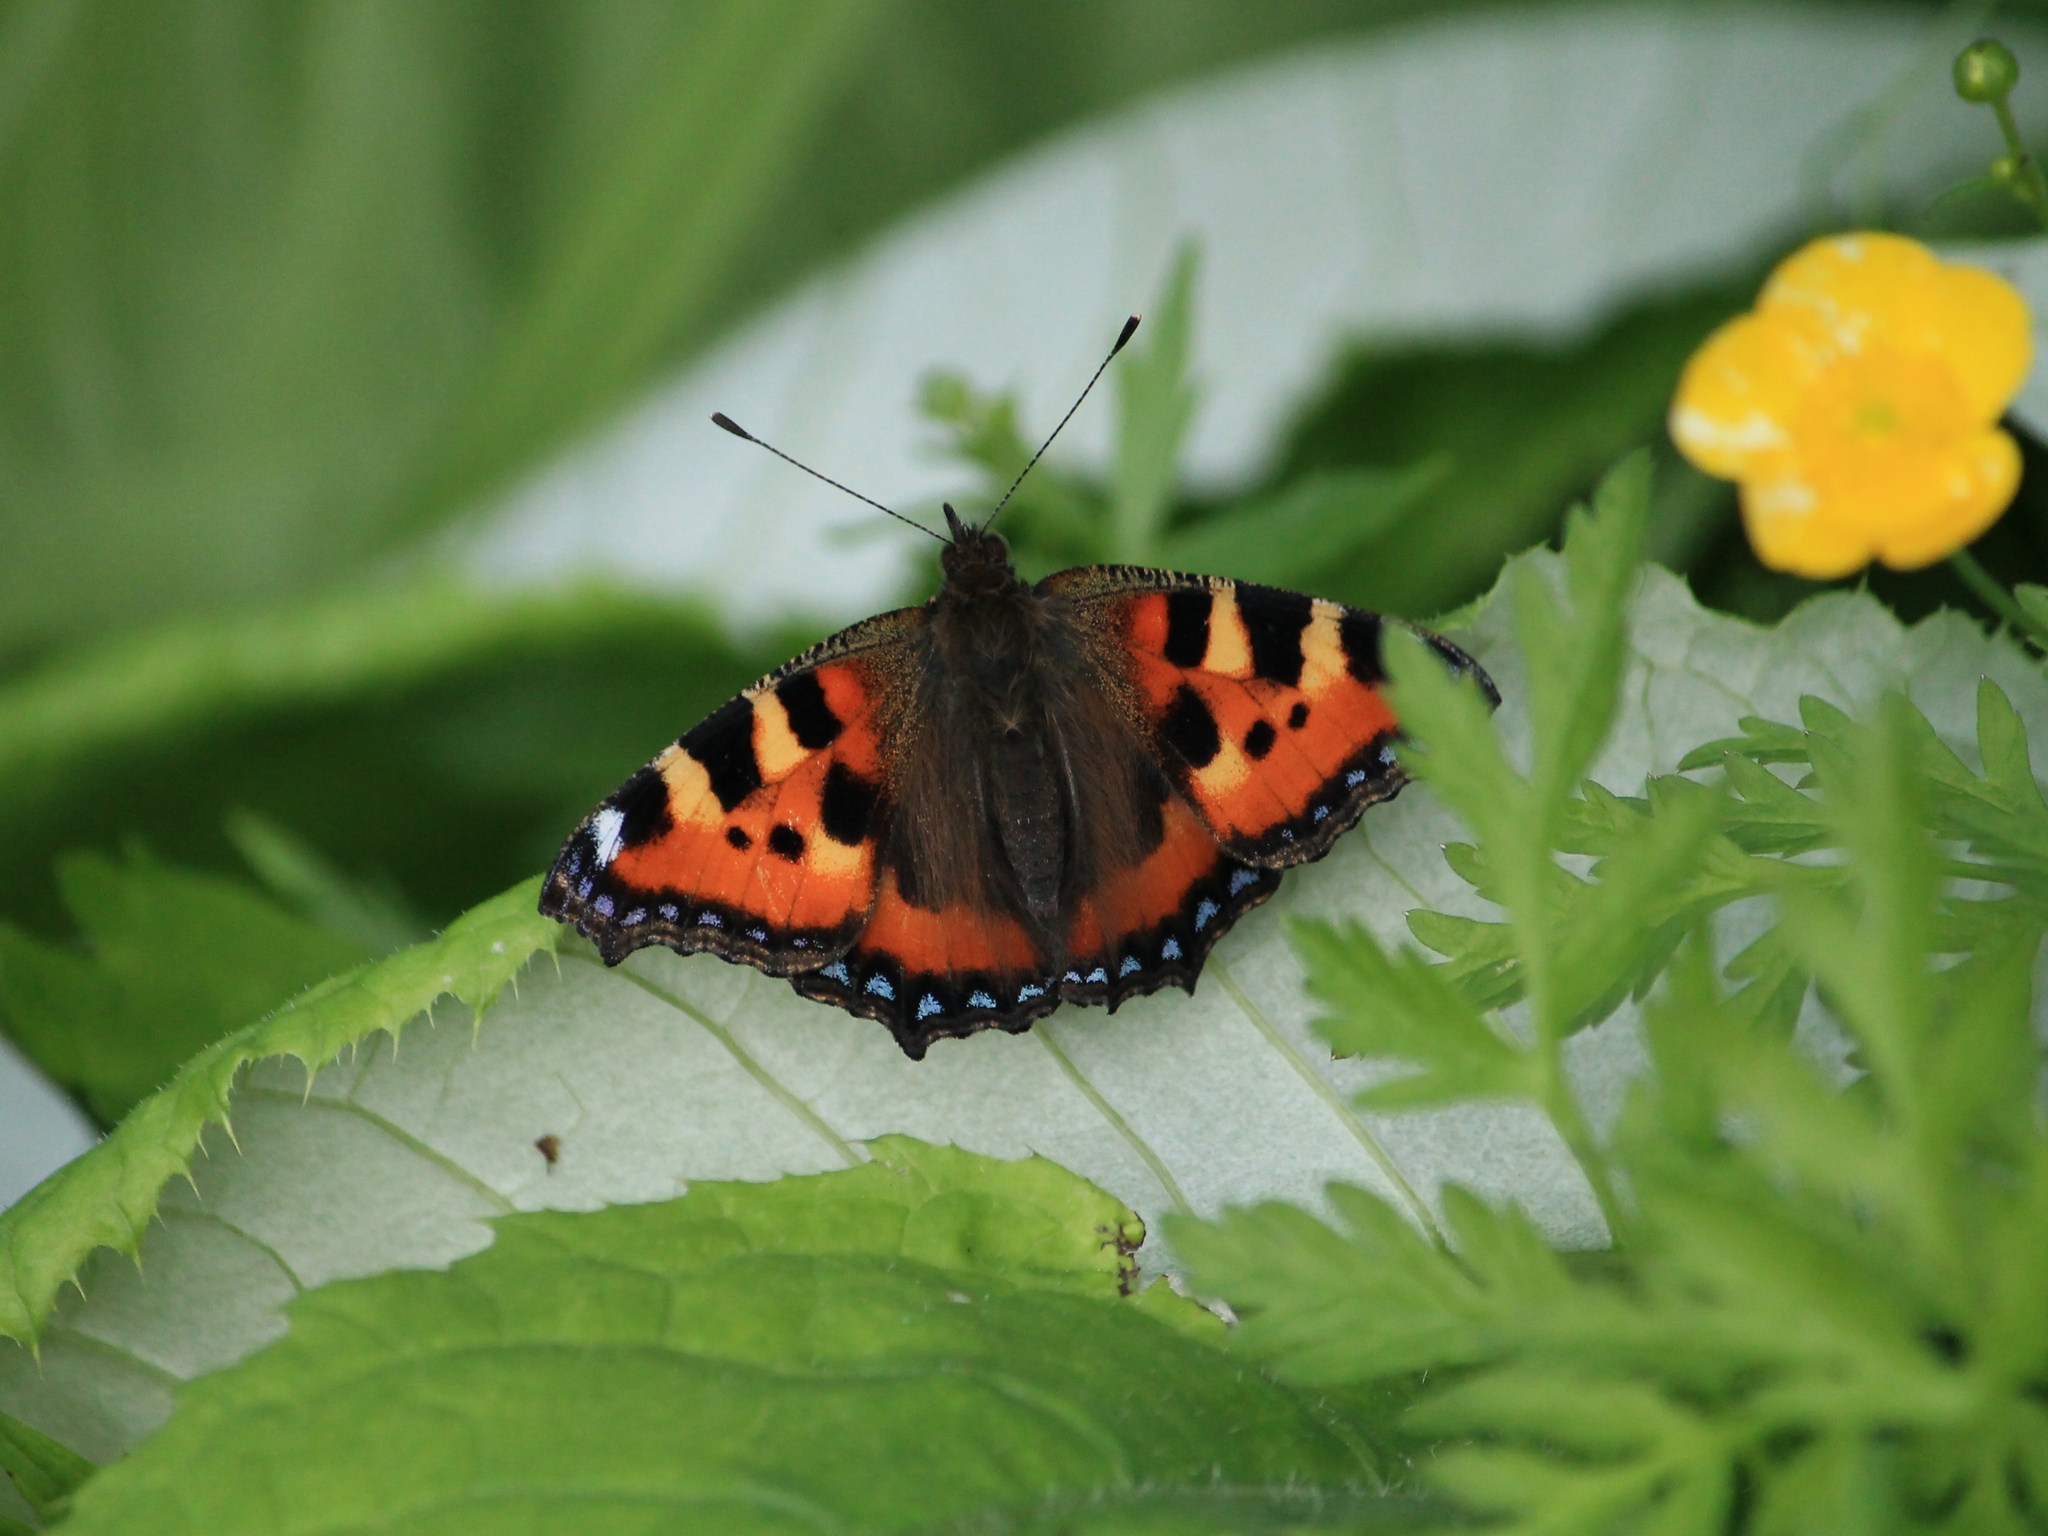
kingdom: Animalia
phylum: Arthropoda
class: Insecta
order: Lepidoptera
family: Nymphalidae
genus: Aglais
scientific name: Aglais urticae
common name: Small tortoiseshell
